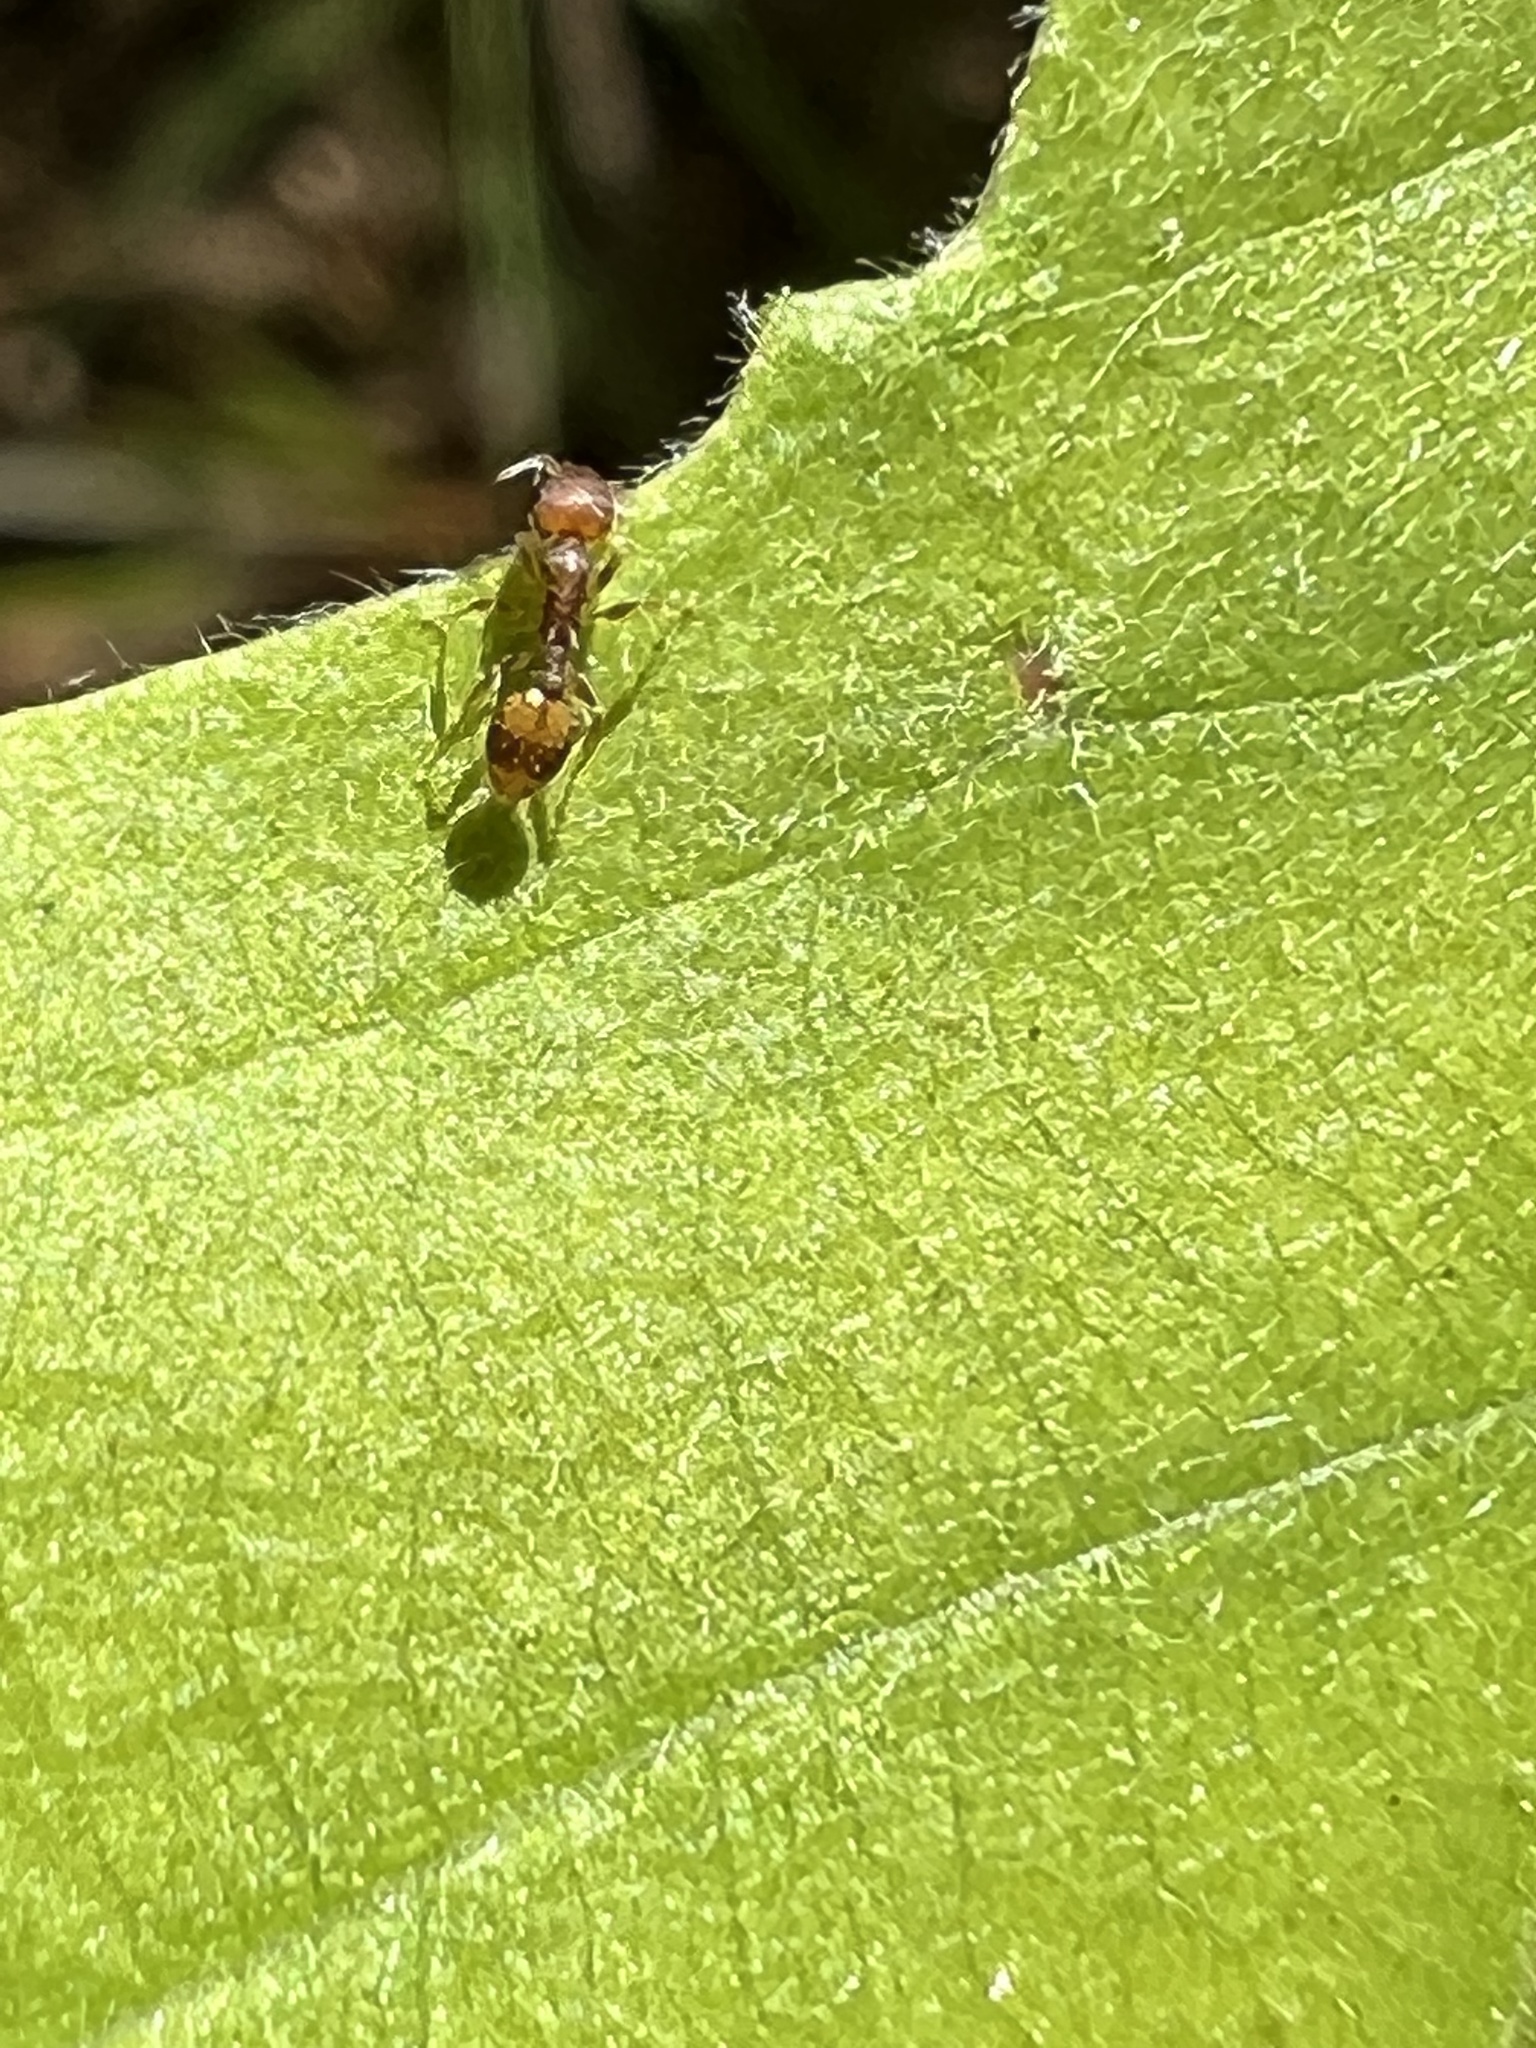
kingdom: Animalia
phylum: Arthropoda
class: Insecta
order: Hymenoptera
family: Formicidae
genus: Temnothorax
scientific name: Temnothorax curvispinosus
